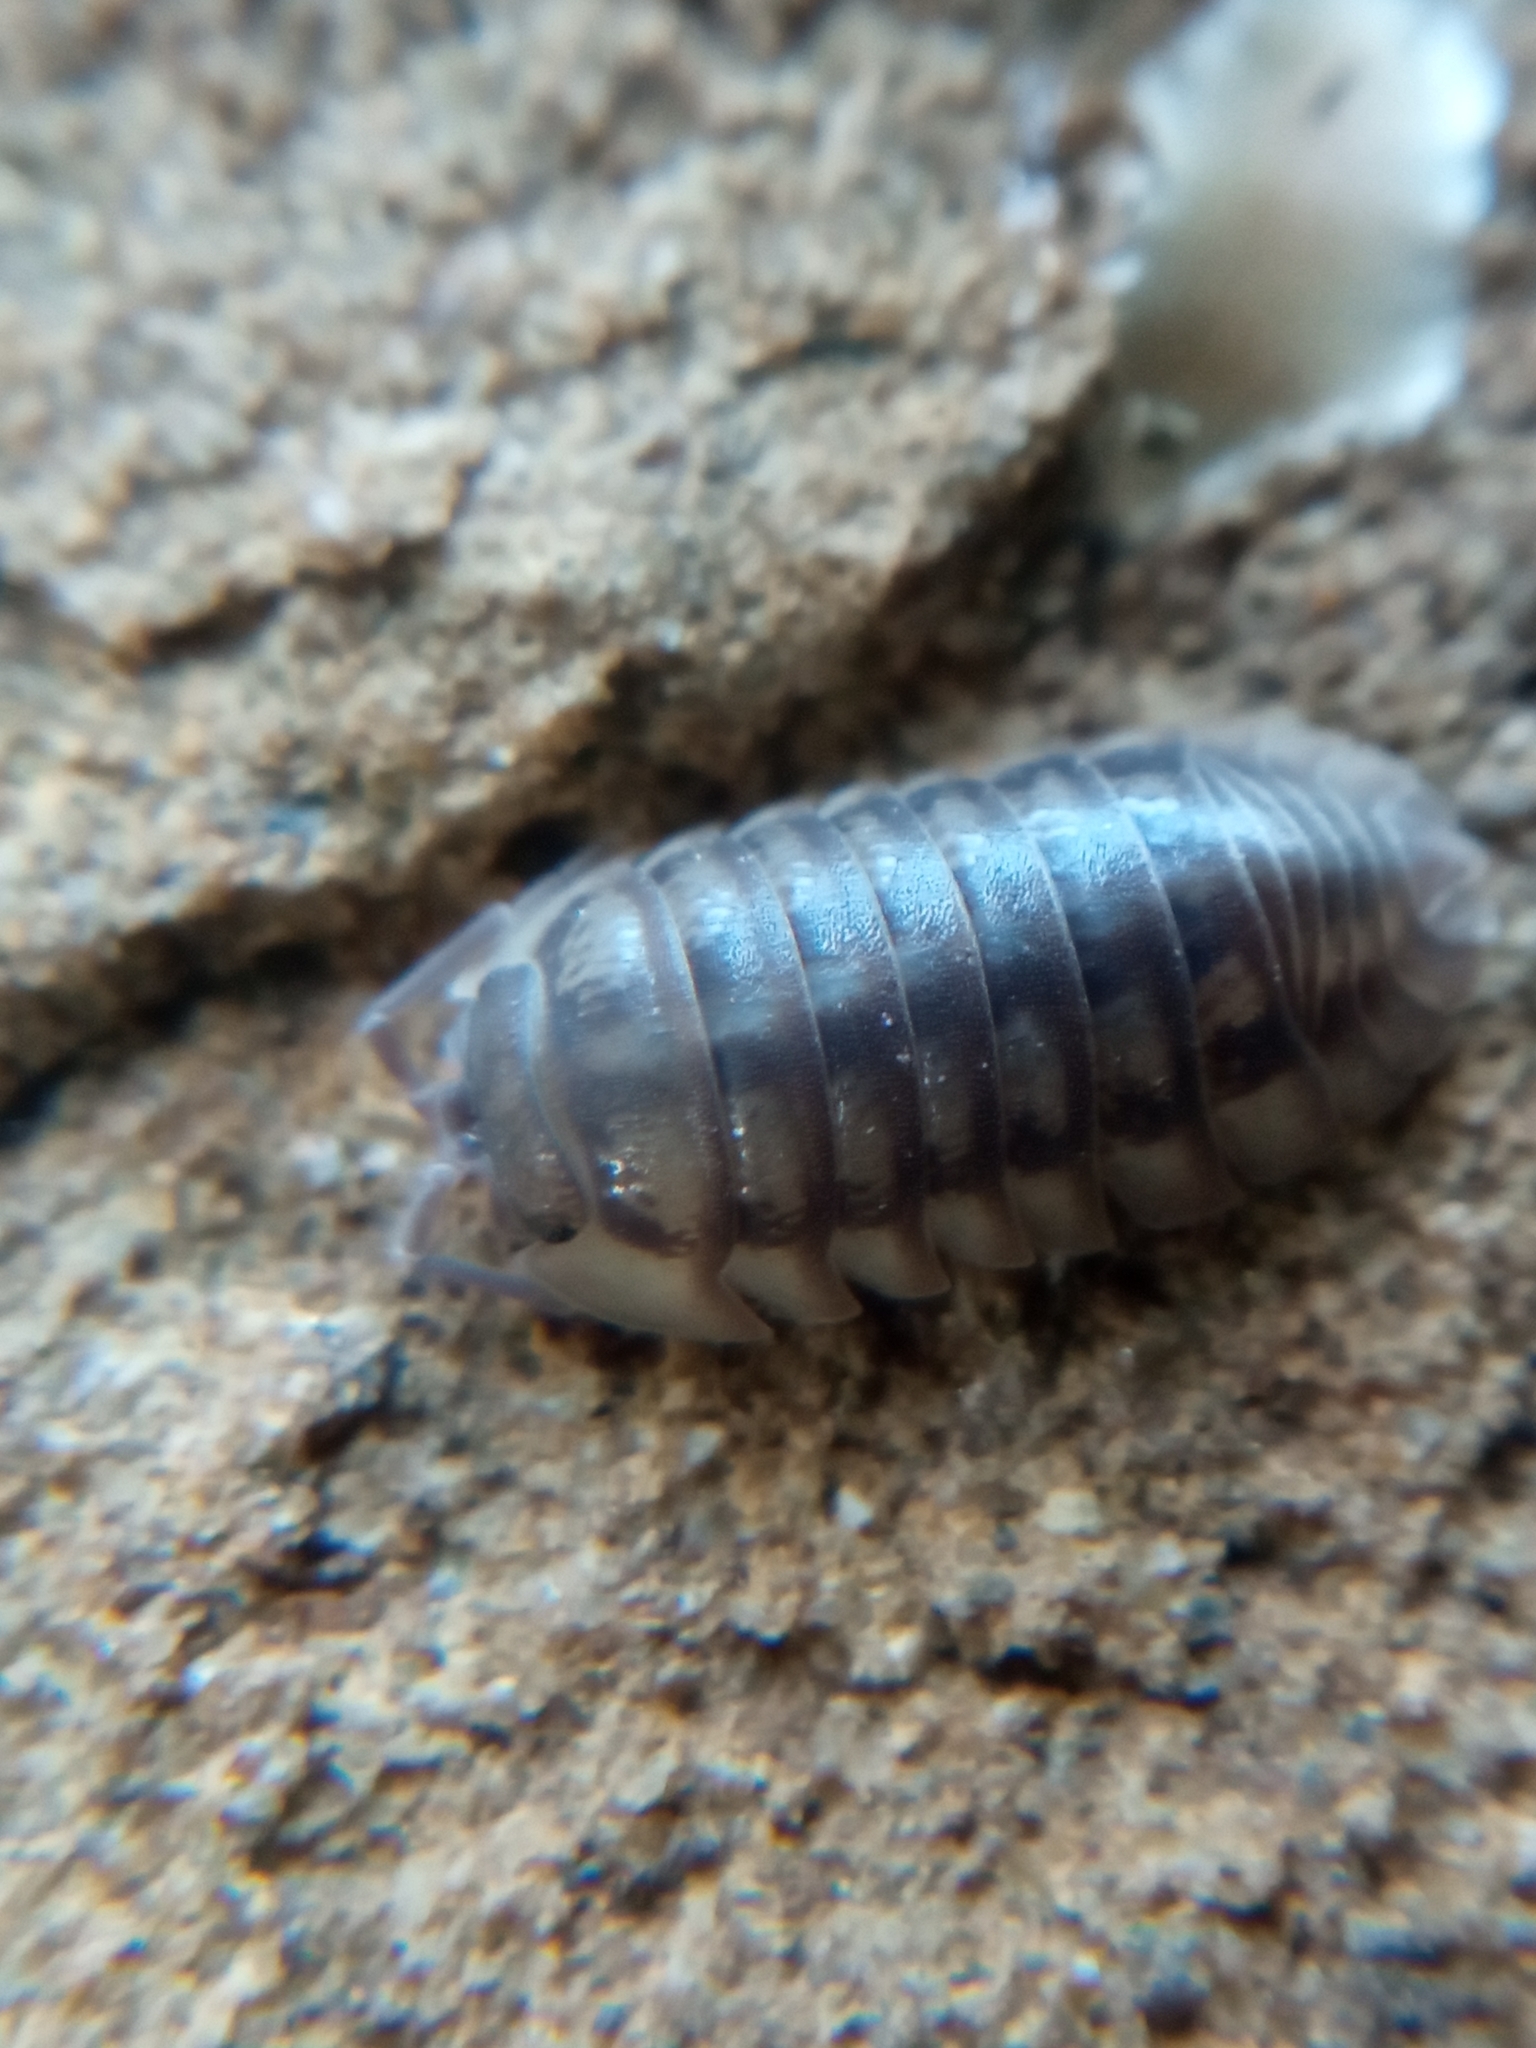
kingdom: Animalia
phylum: Arthropoda
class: Malacostraca
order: Isopoda
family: Armadillidiidae
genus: Armadillidium
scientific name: Armadillidium nasatum
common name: Isopod
